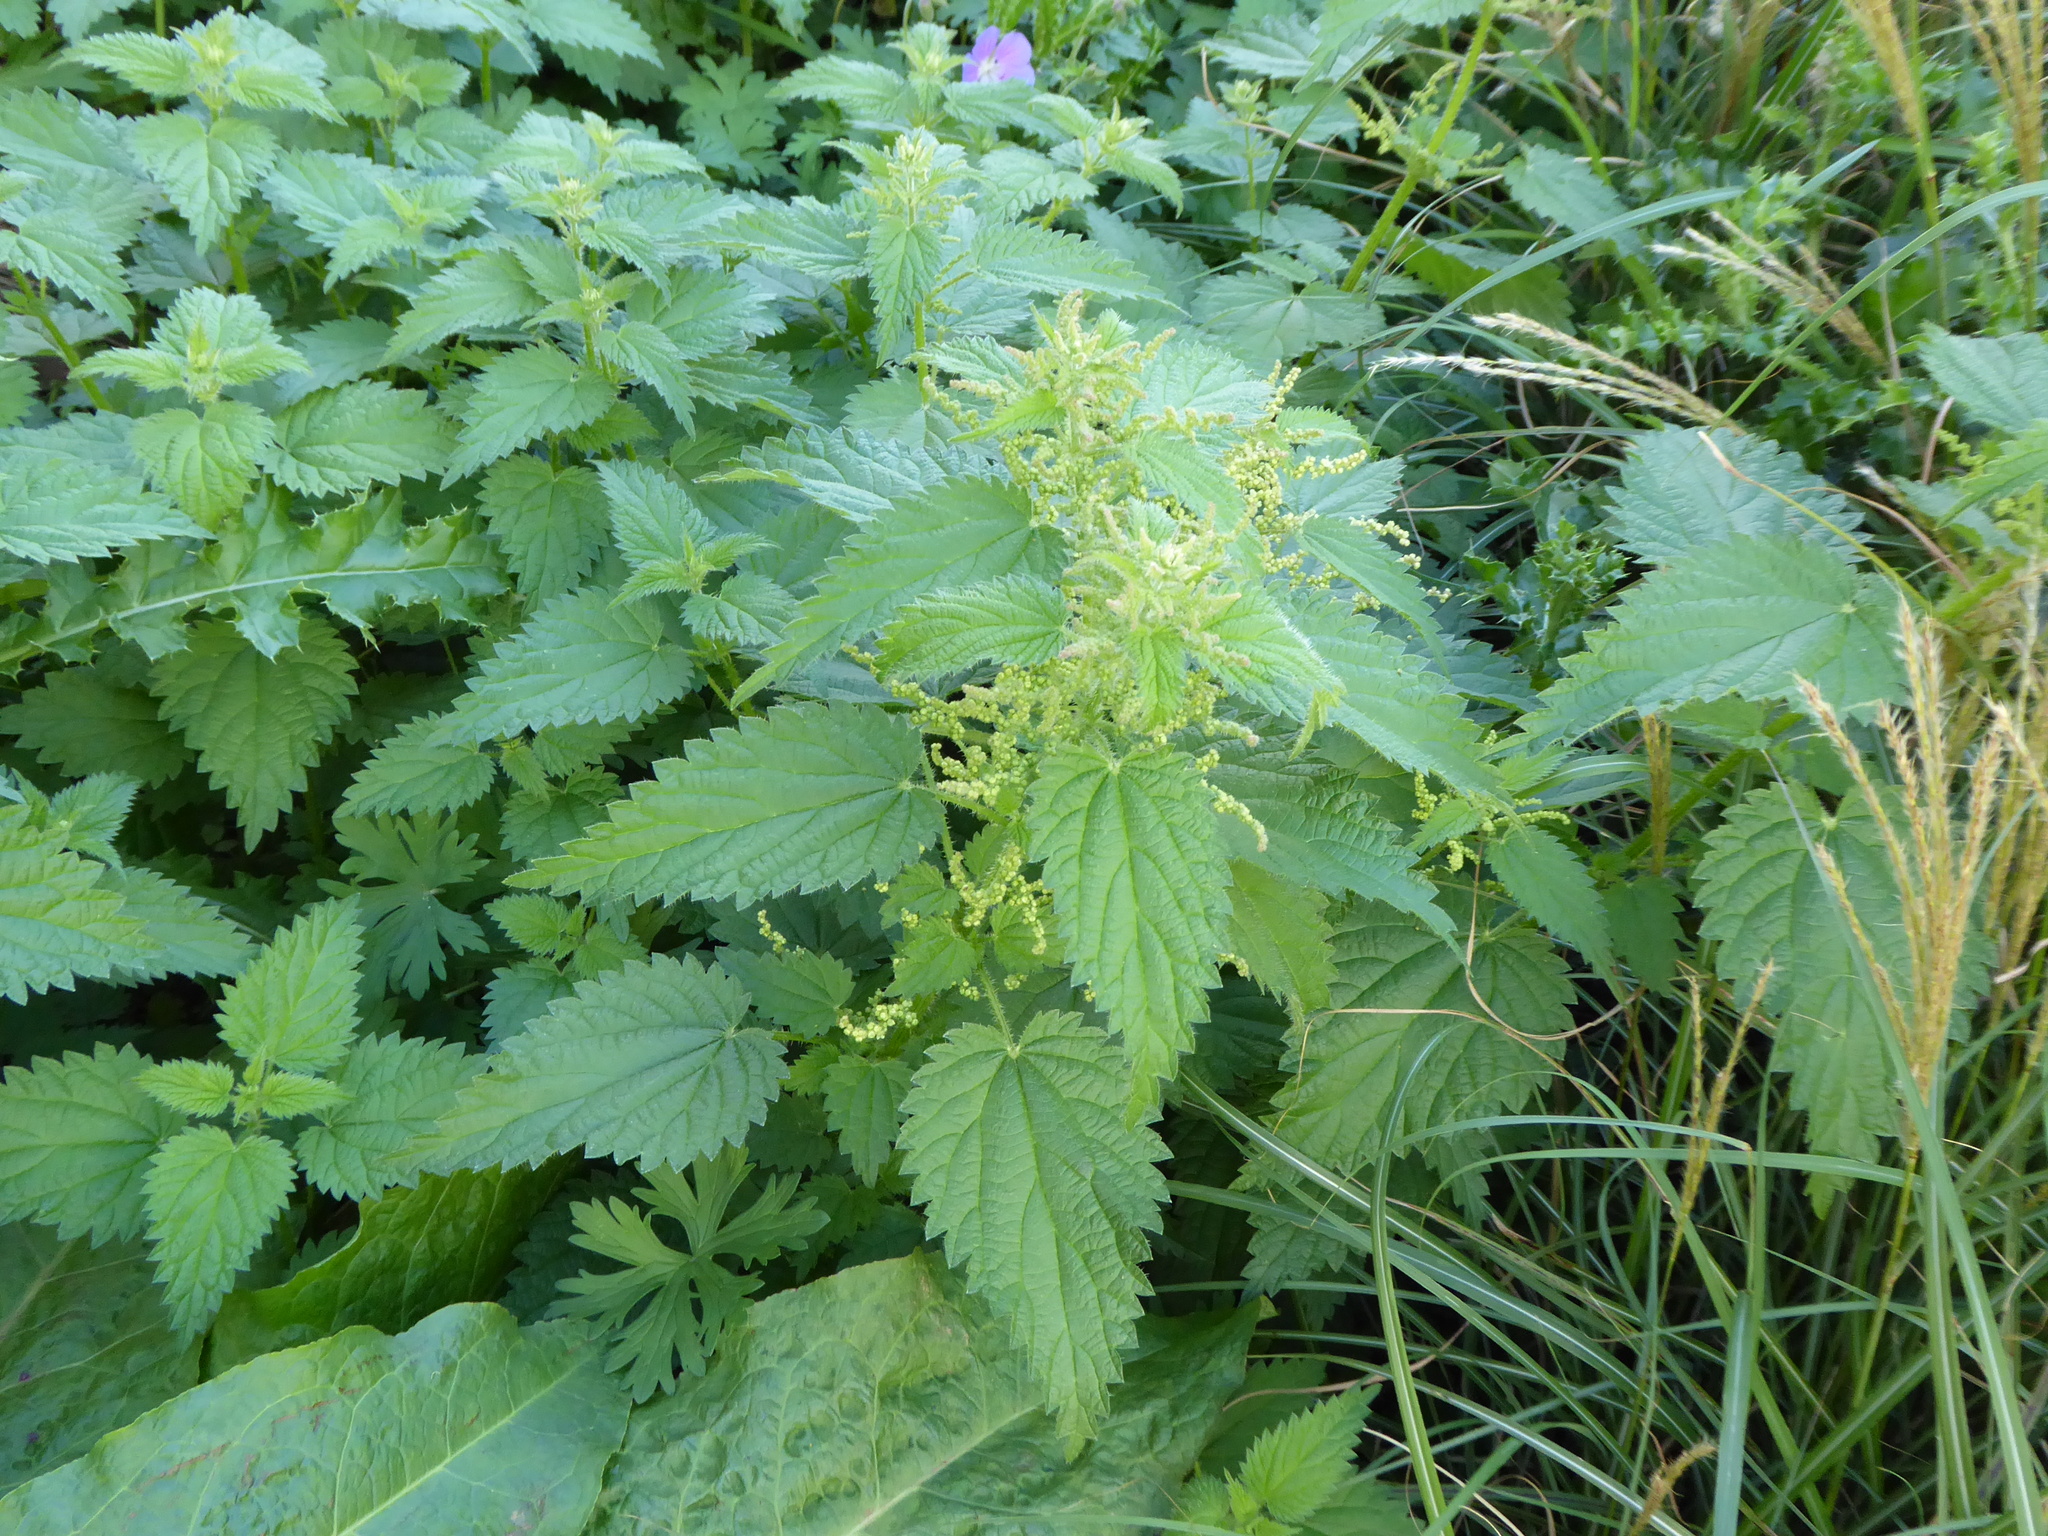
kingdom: Plantae
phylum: Tracheophyta
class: Magnoliopsida
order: Rosales
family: Urticaceae
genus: Urtica
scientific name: Urtica dioica
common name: Common nettle
